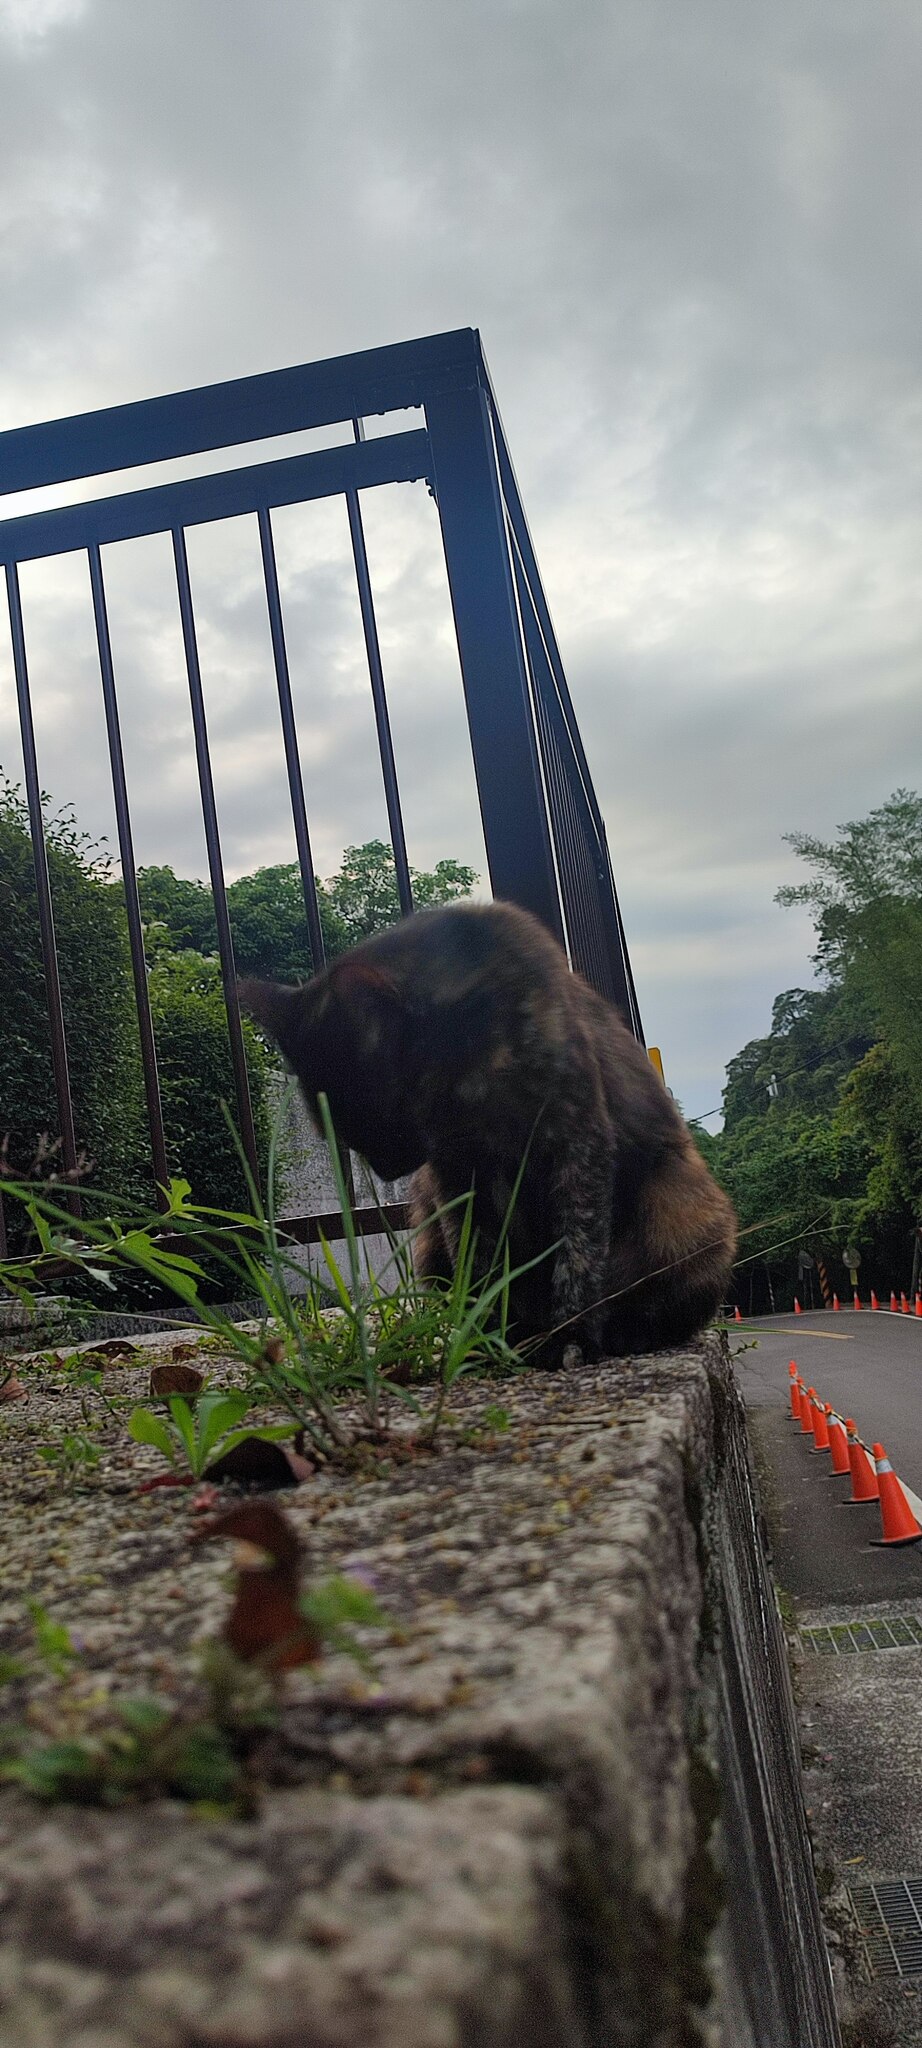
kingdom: Animalia
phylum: Chordata
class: Mammalia
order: Carnivora
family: Felidae
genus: Felis
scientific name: Felis catus
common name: Domestic cat
